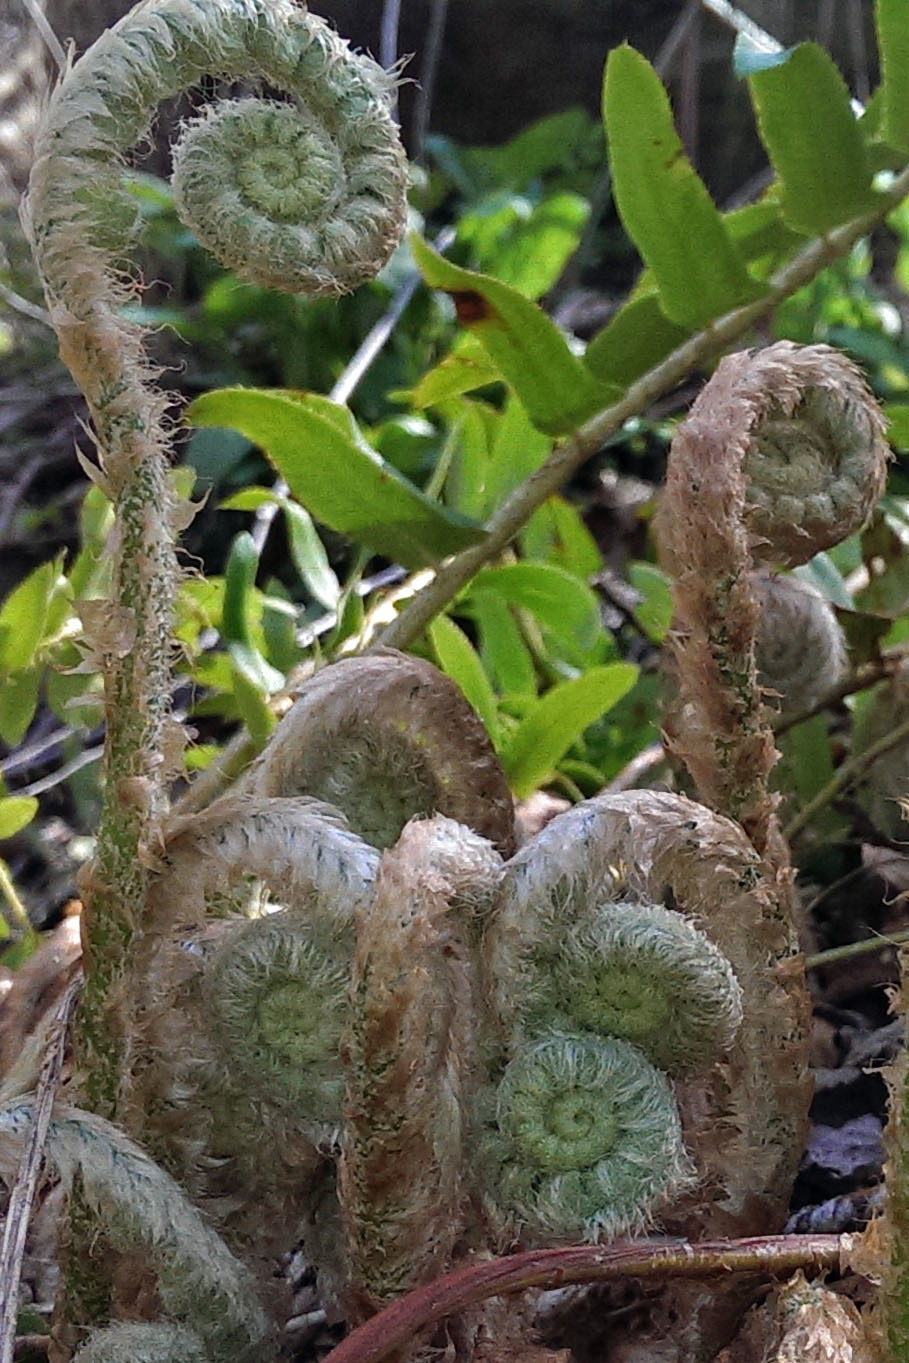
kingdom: Plantae
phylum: Tracheophyta
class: Polypodiopsida
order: Polypodiales
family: Dryopteridaceae
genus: Polystichum
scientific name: Polystichum acrostichoides
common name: Christmas fern
